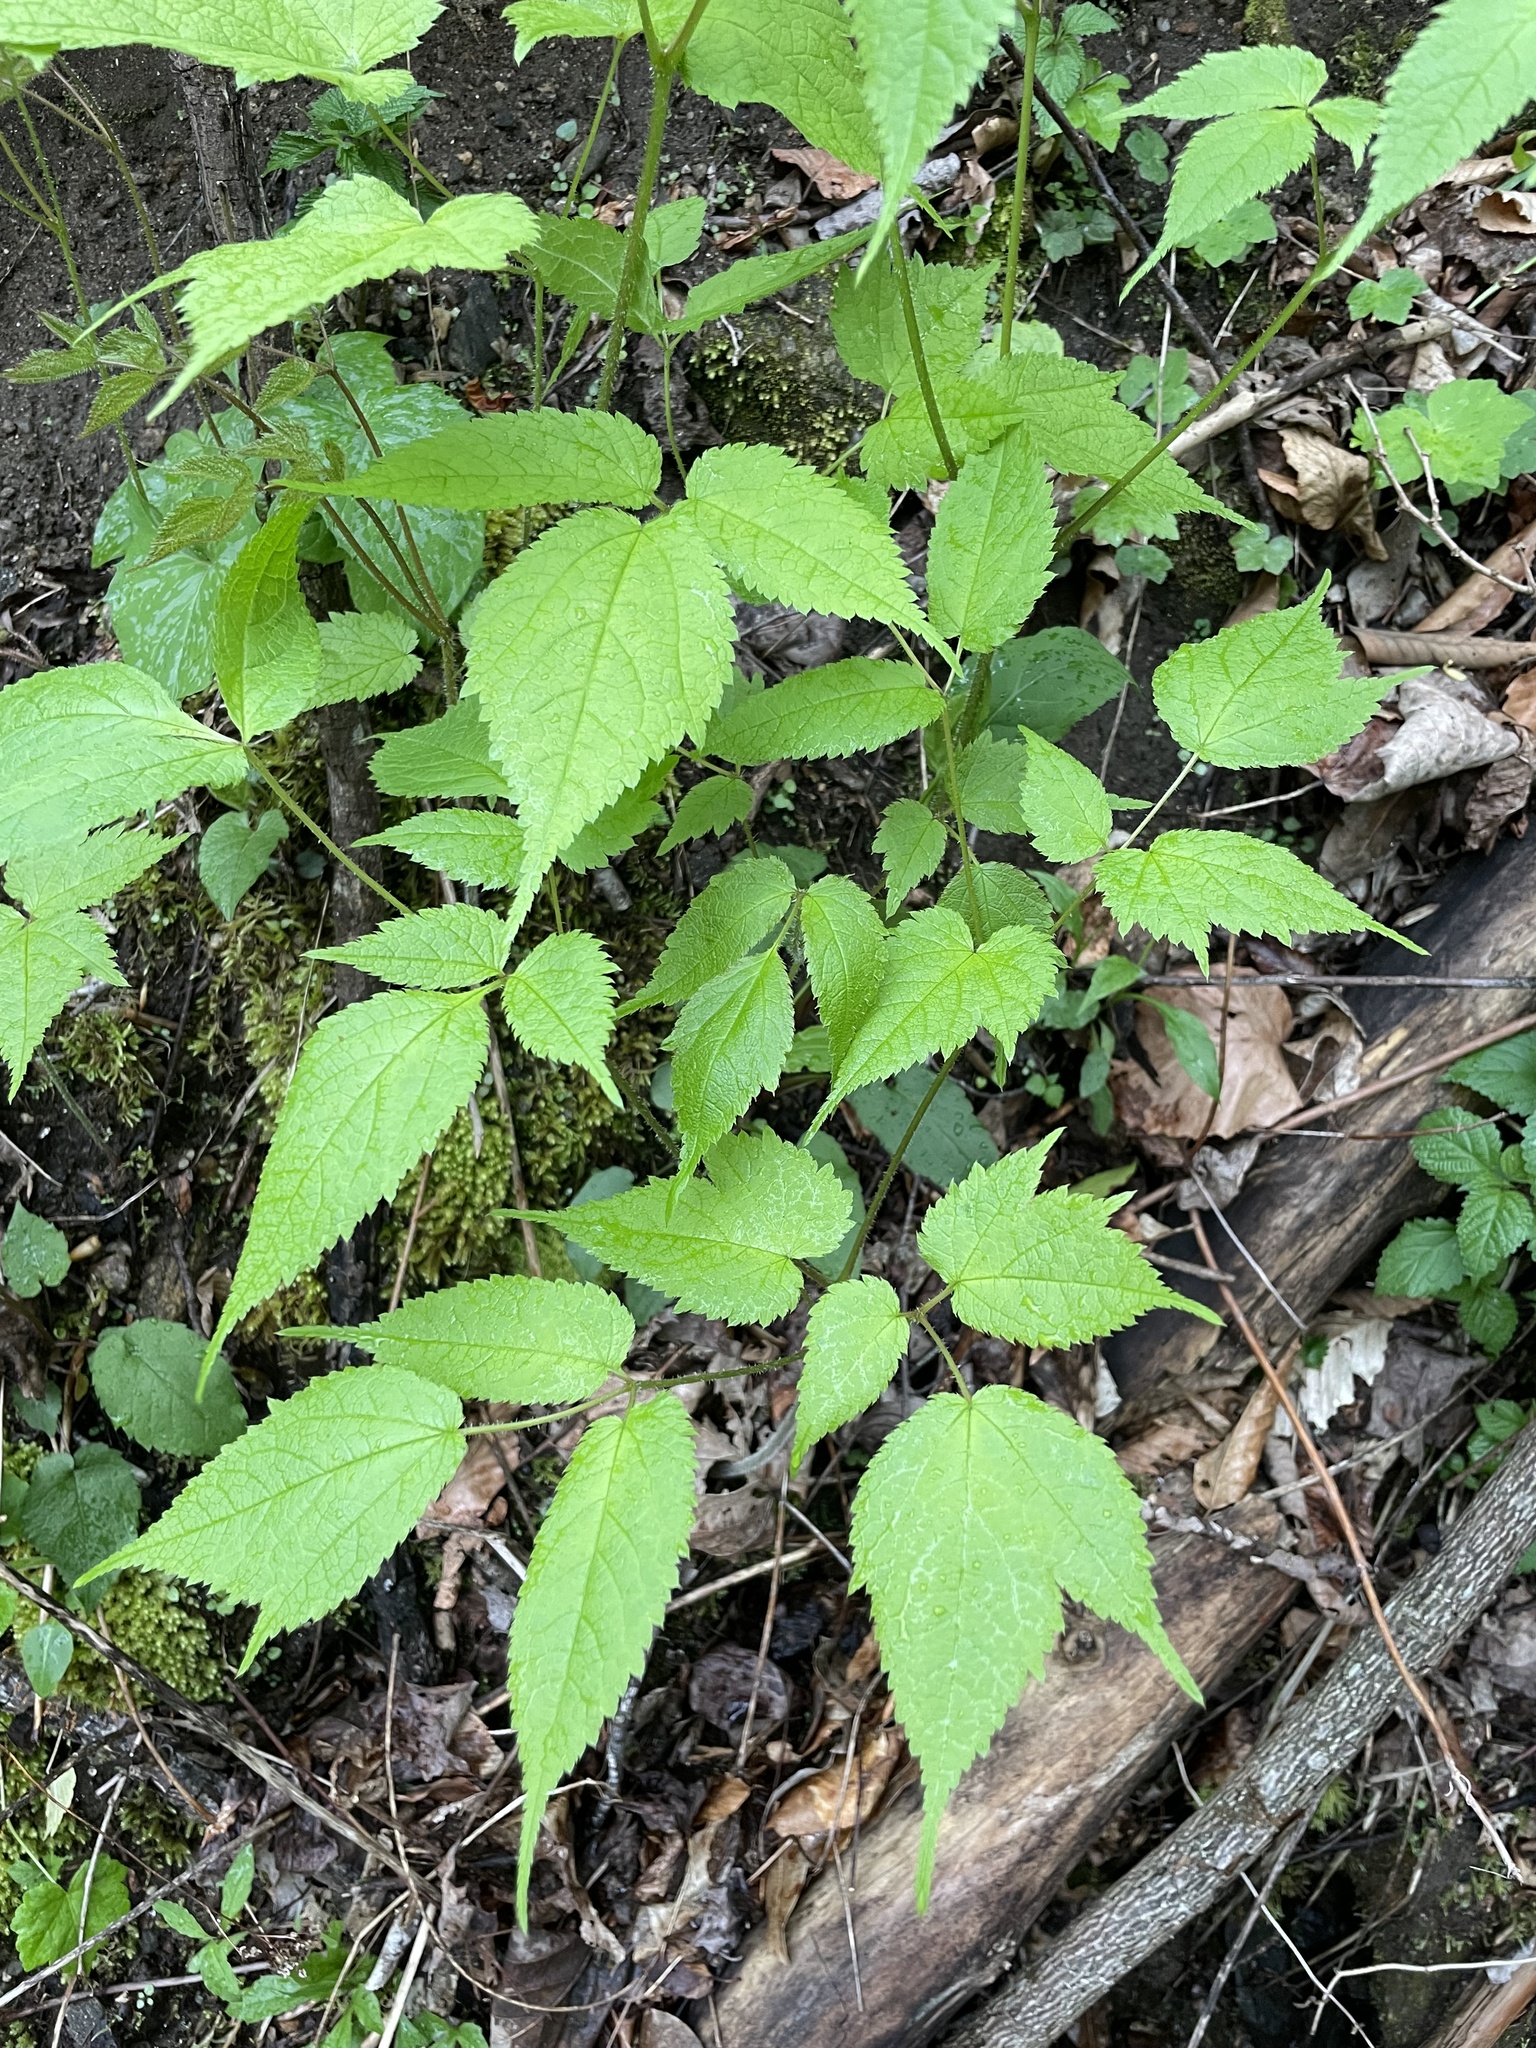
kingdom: Plantae
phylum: Tracheophyta
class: Magnoliopsida
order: Saxifragales
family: Saxifragaceae
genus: Astilbe
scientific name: Astilbe biternata
